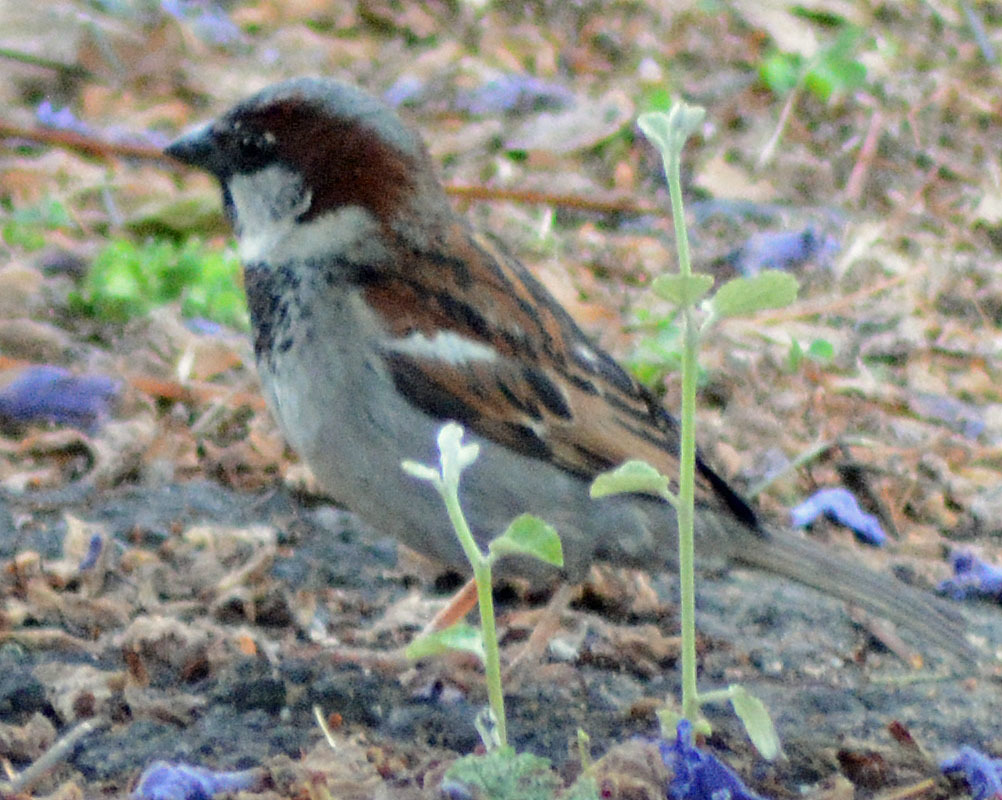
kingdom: Animalia
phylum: Chordata
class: Aves
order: Passeriformes
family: Passeridae
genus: Passer
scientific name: Passer domesticus
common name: House sparrow
